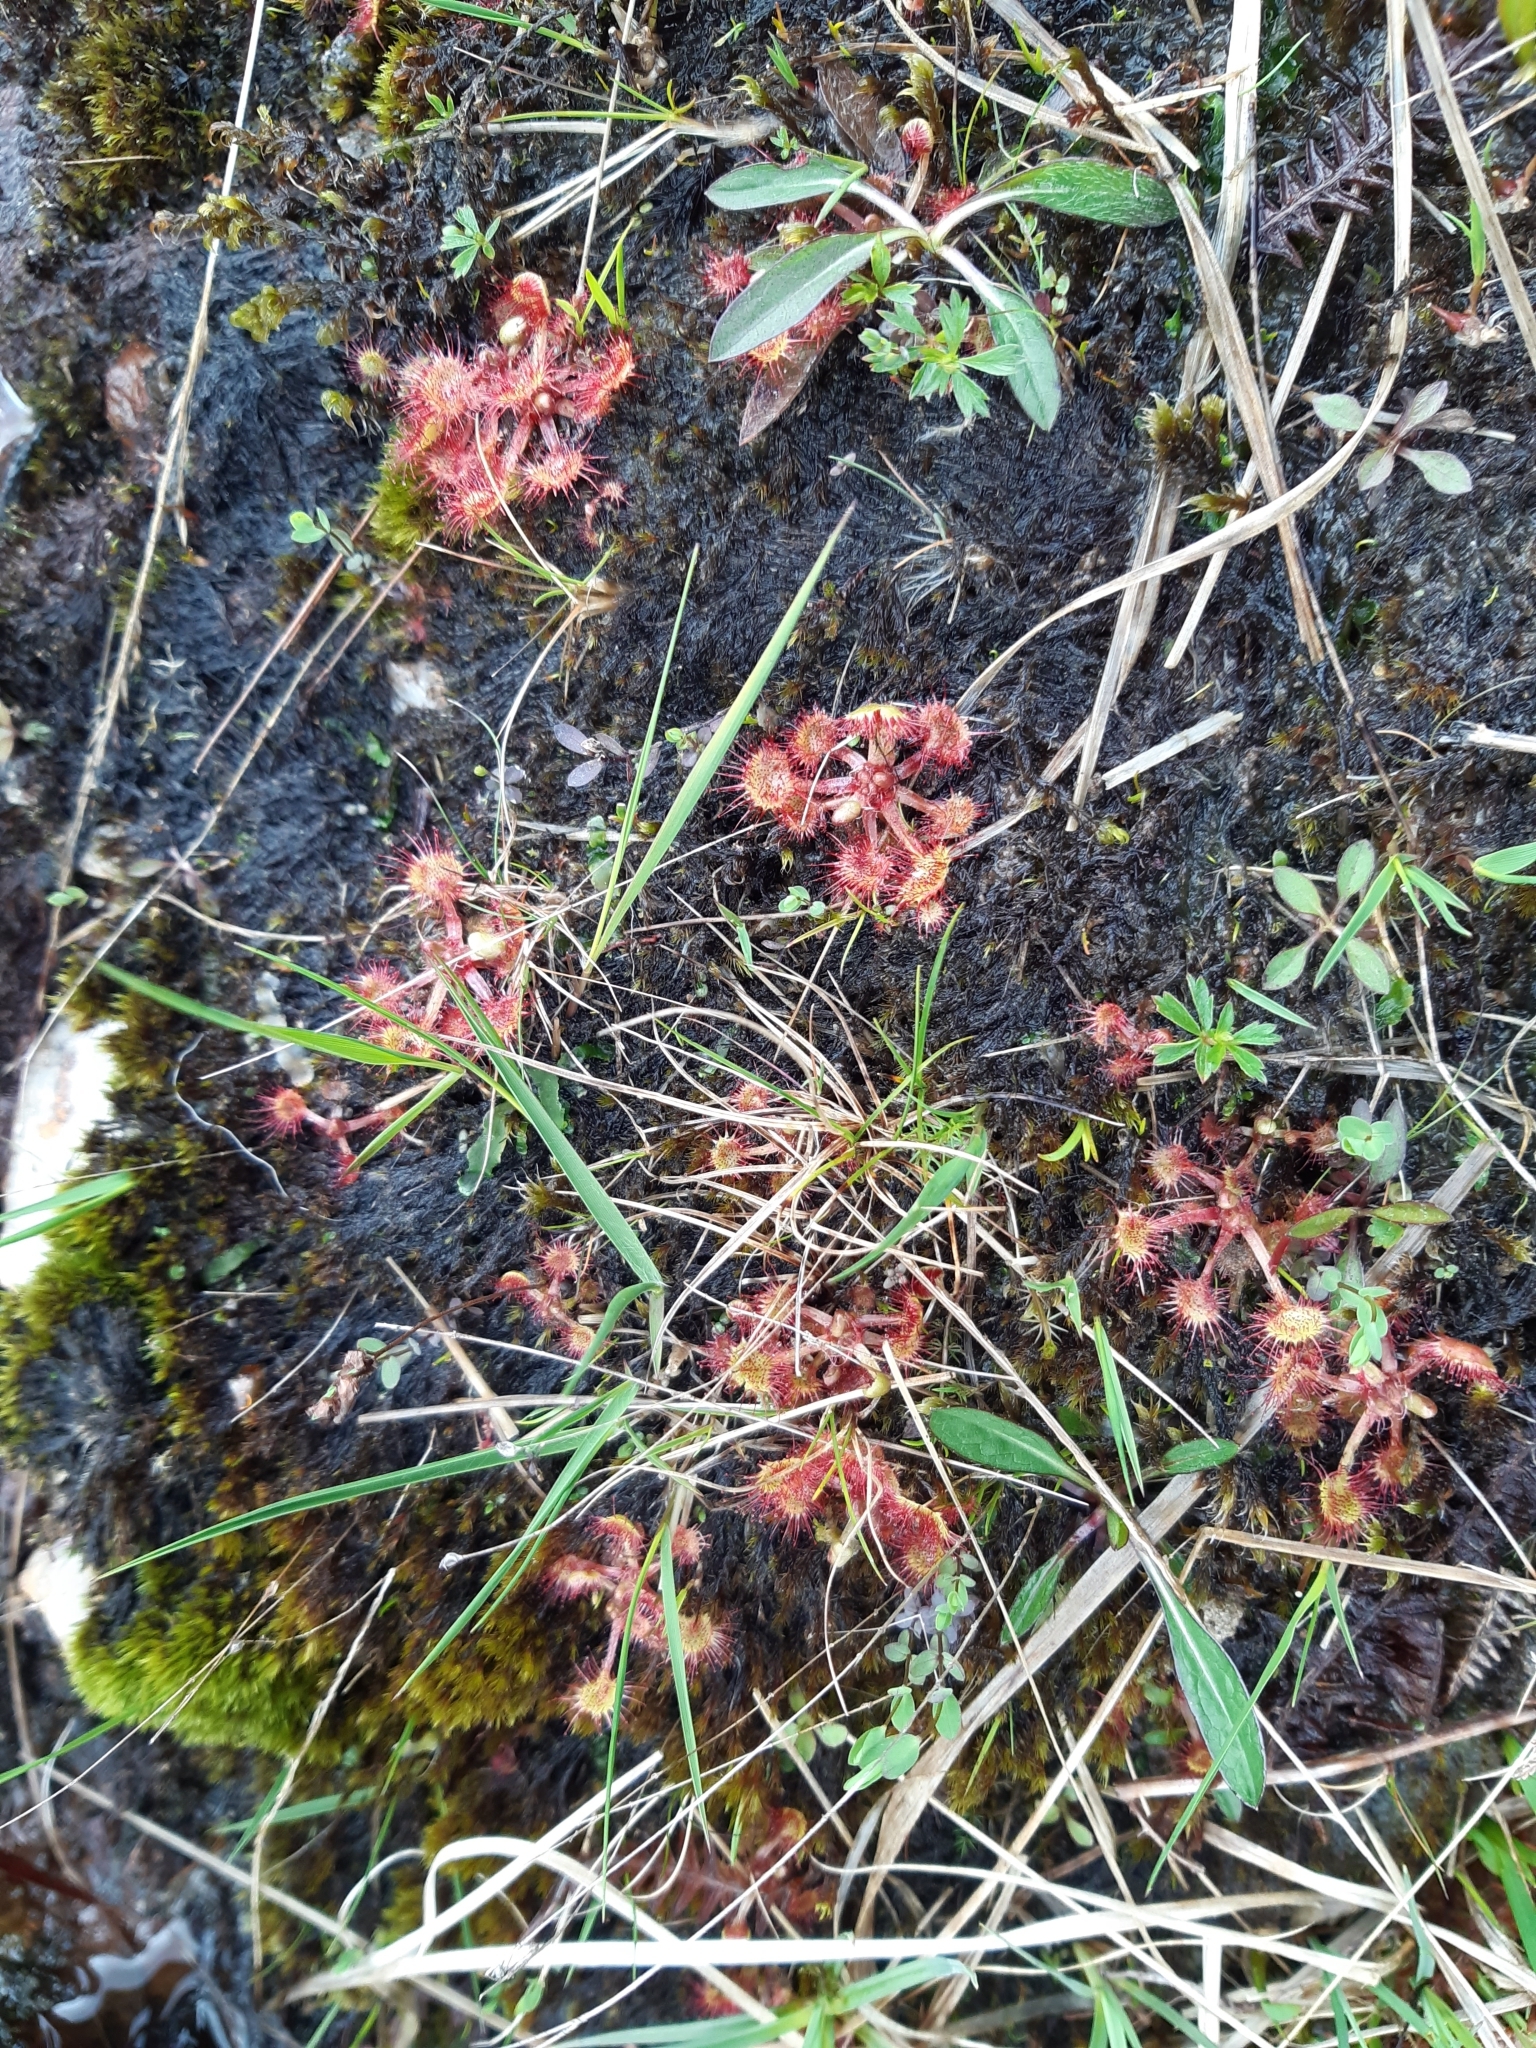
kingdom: Plantae
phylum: Tracheophyta
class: Magnoliopsida
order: Caryophyllales
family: Droseraceae
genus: Drosera
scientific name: Drosera rotundifolia
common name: Round-leaved sundew
